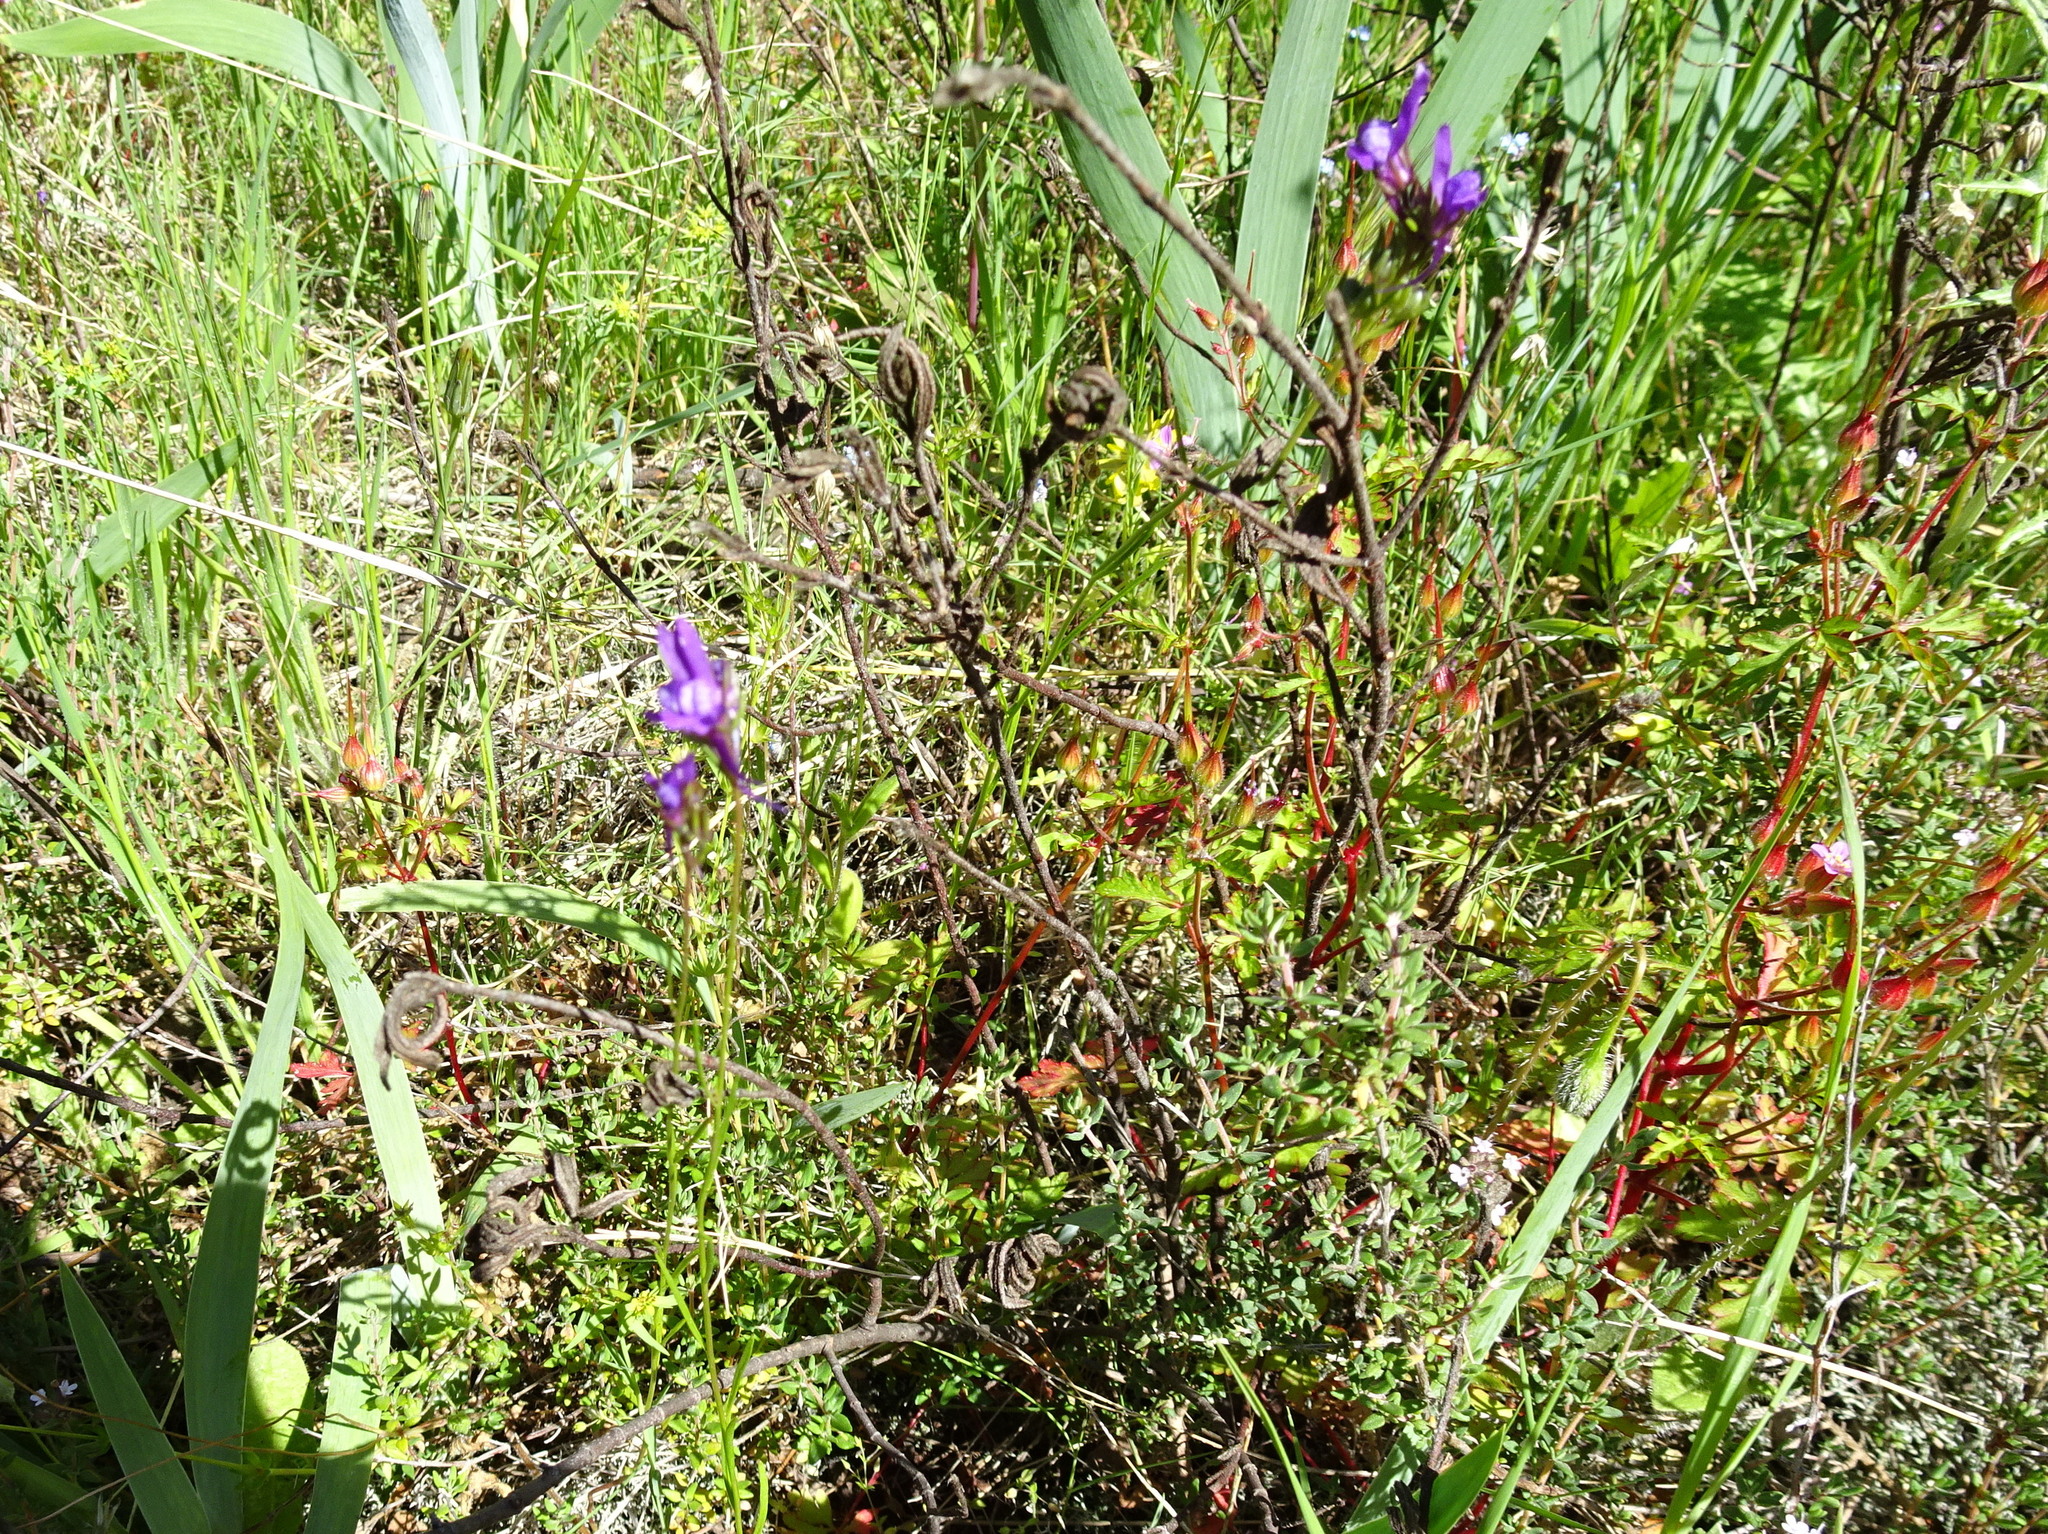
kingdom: Plantae
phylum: Tracheophyta
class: Magnoliopsida
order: Lamiales
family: Plantaginaceae
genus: Linaria
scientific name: Linaria pelisseriana
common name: Jersey toadflax
